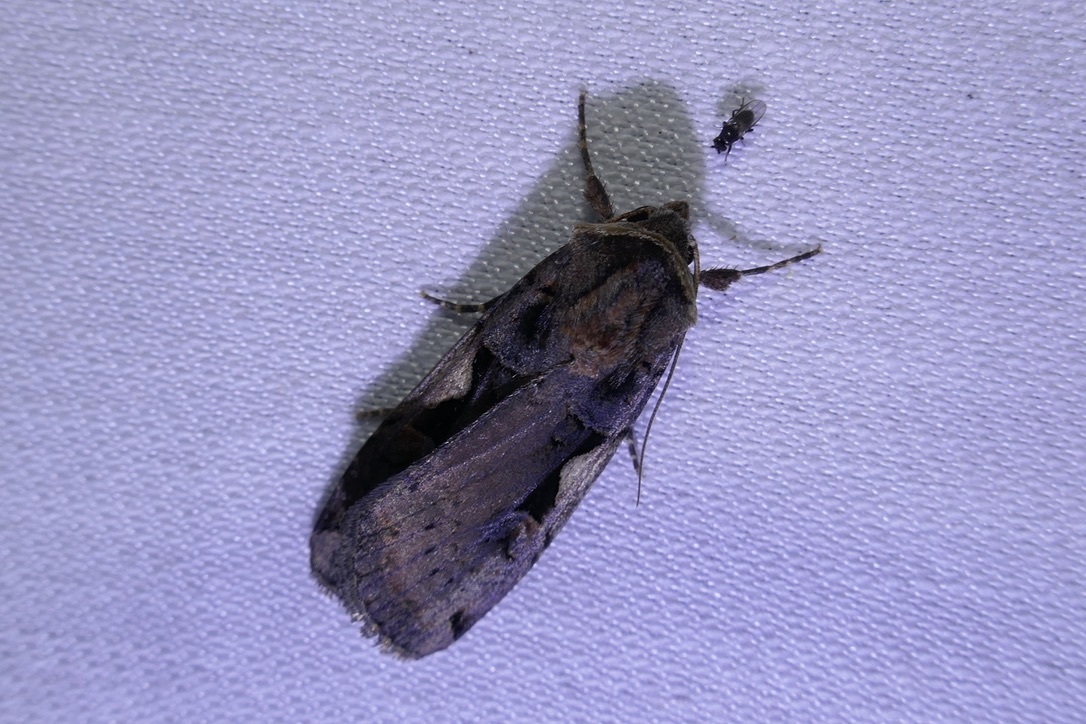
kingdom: Animalia
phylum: Arthropoda
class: Insecta
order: Lepidoptera
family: Noctuidae
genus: Xestia
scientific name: Xestia c-nigrum
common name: Setaceous hebrew character
